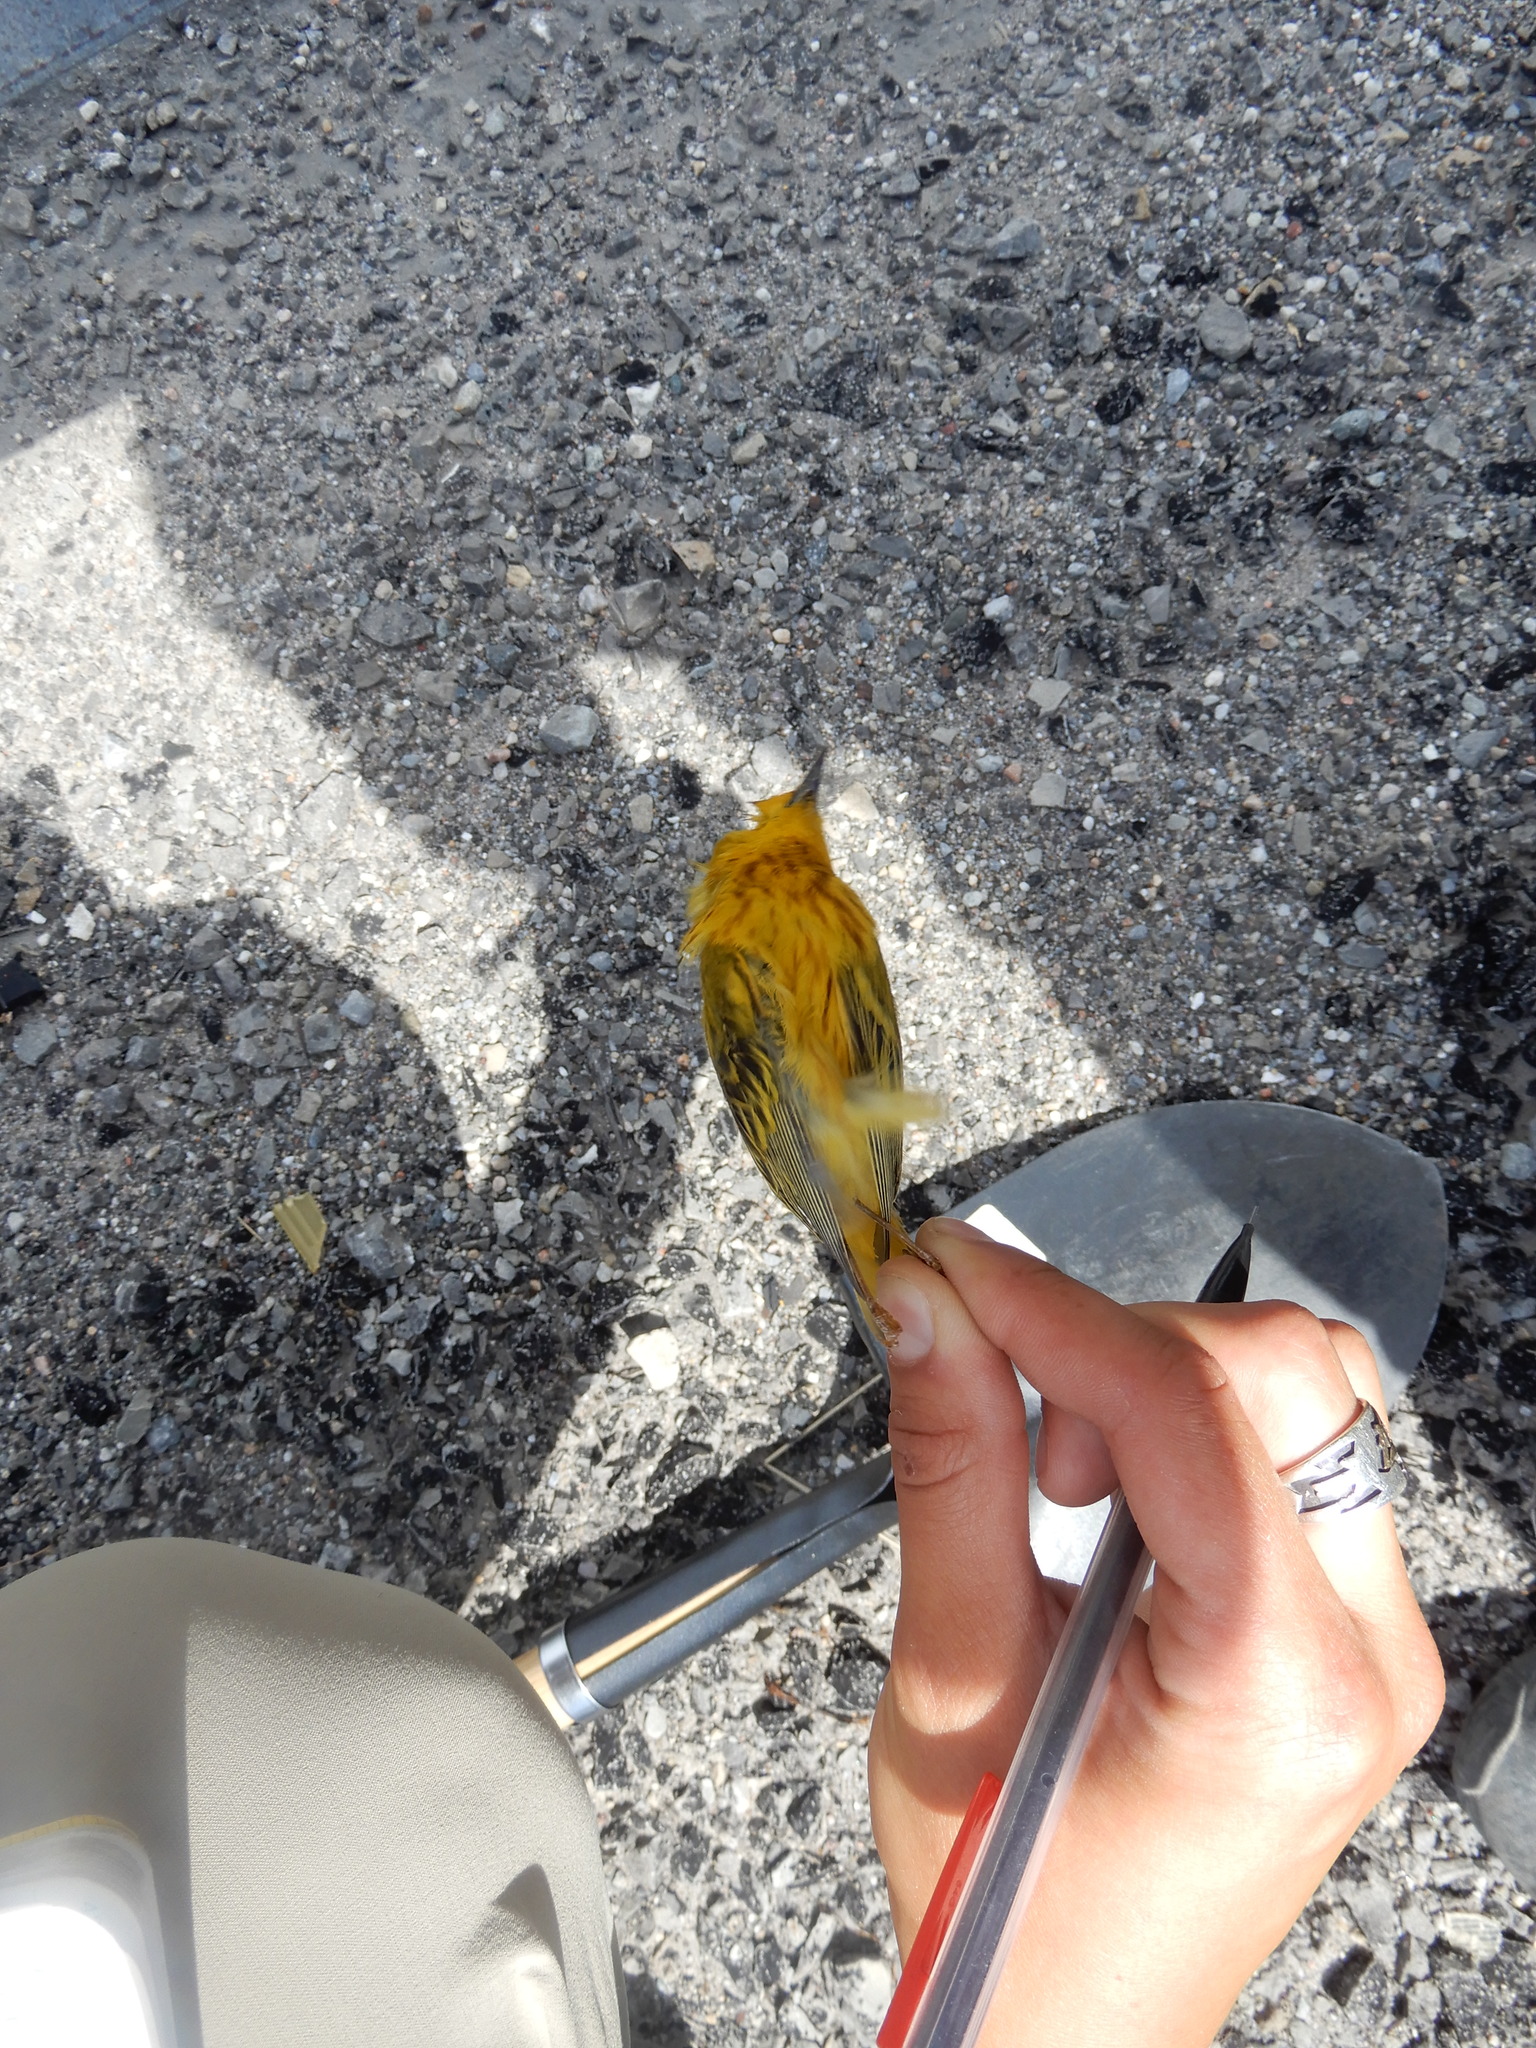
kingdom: Animalia
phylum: Chordata
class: Aves
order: Passeriformes
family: Parulidae
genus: Setophaga
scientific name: Setophaga petechia
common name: Yellow warbler
